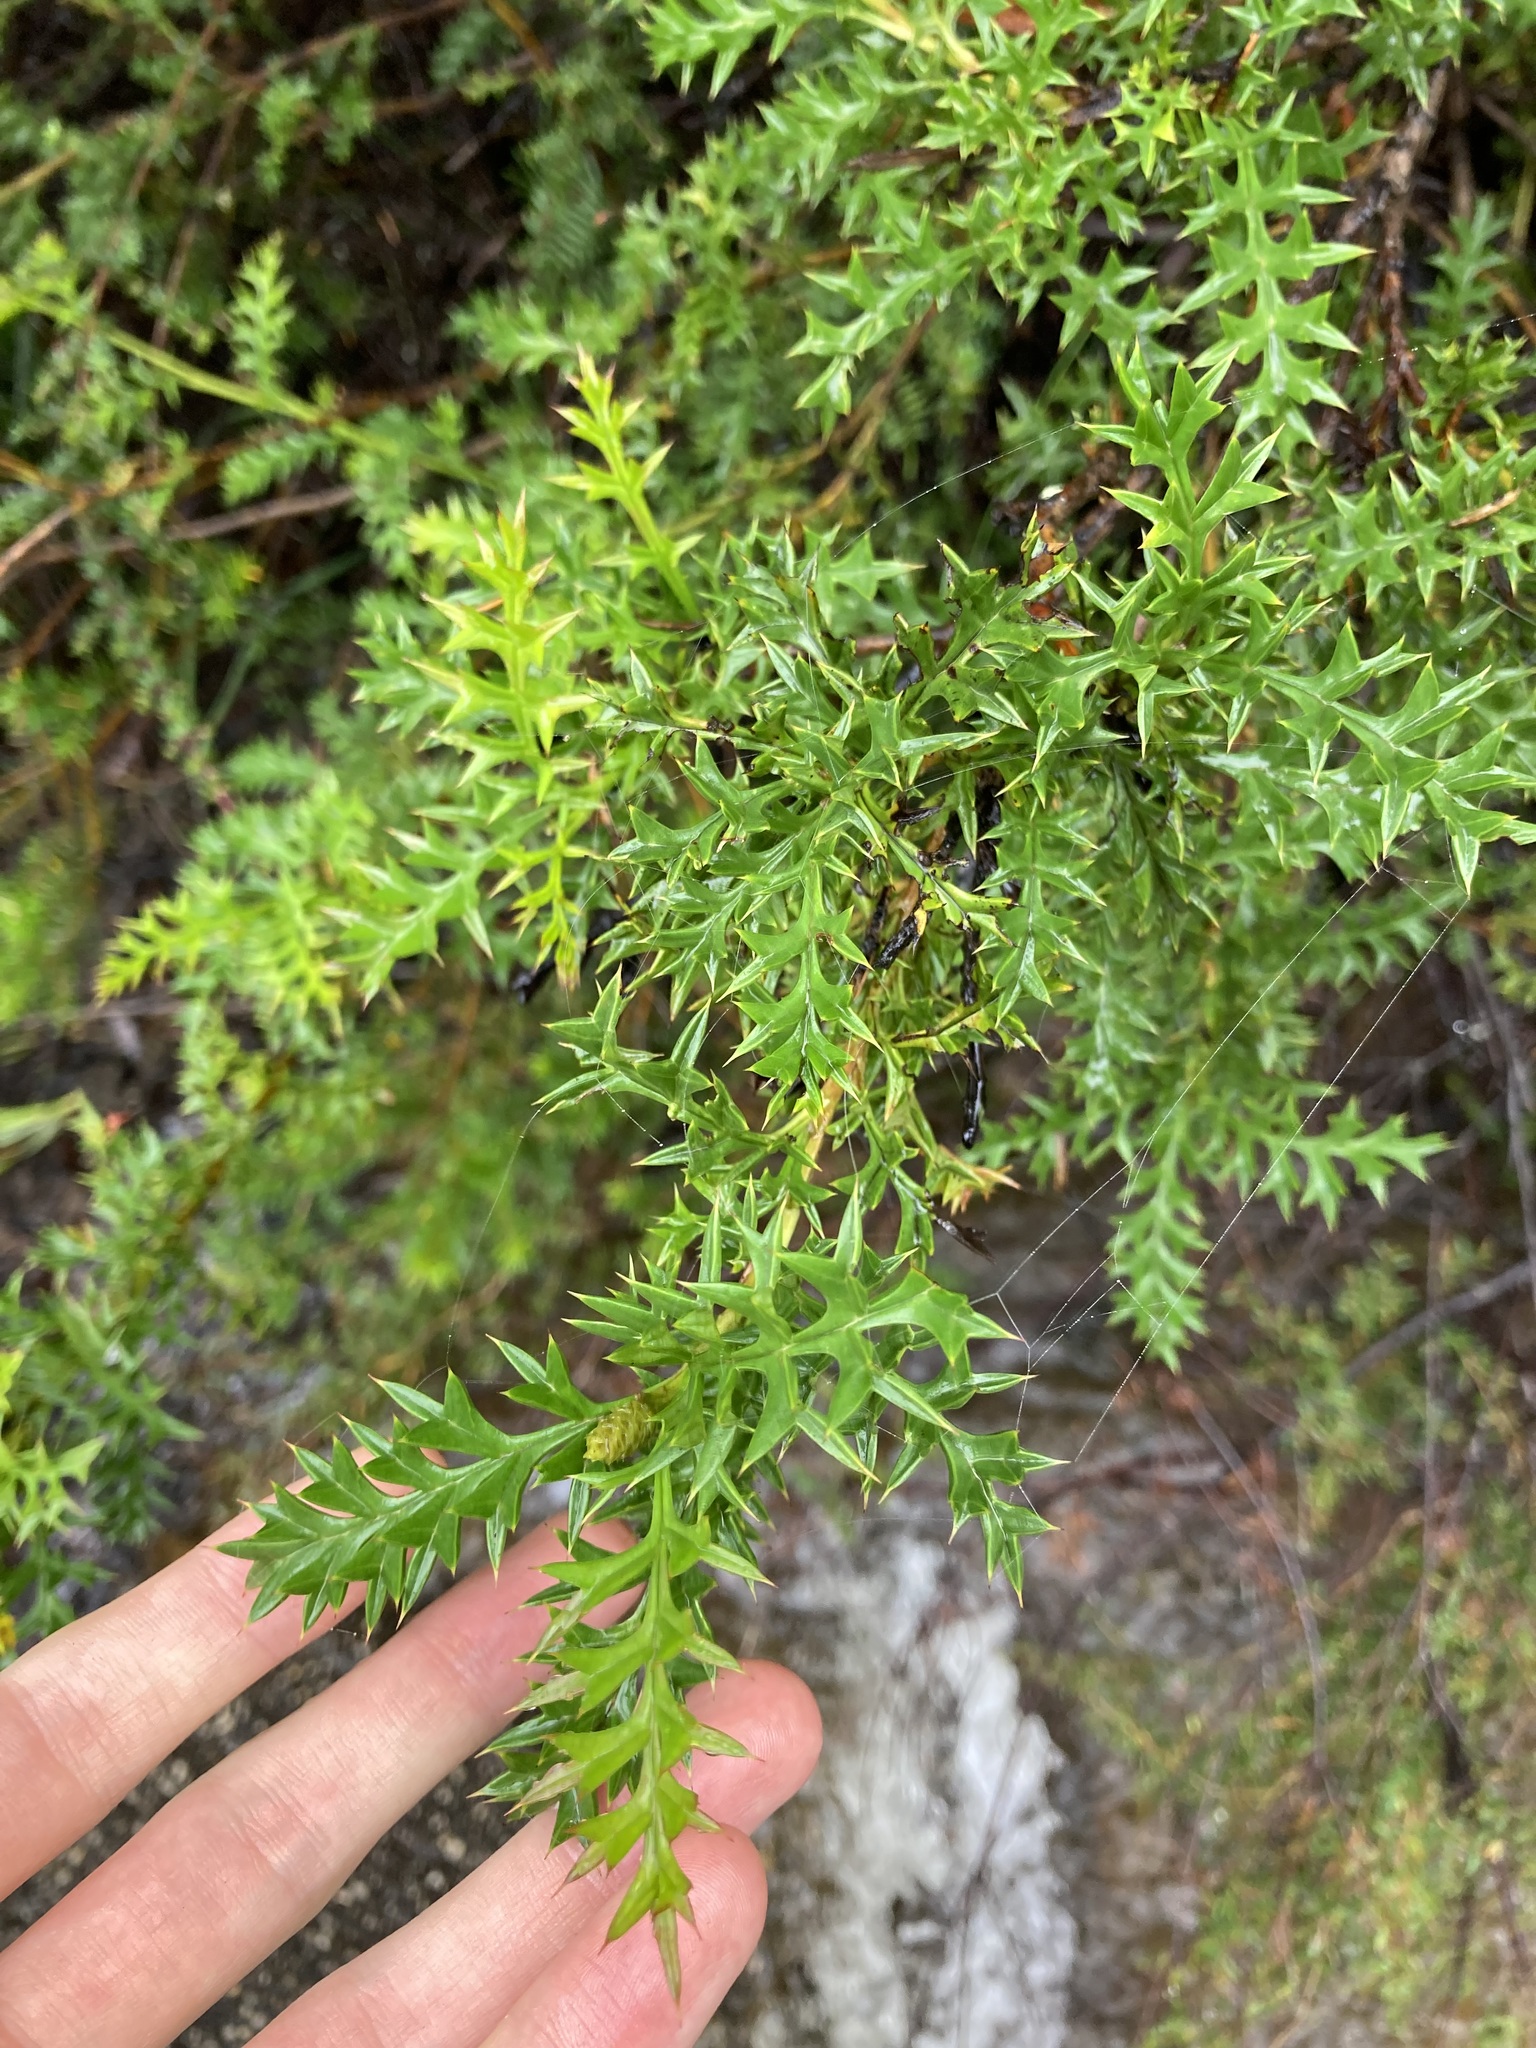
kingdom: Plantae
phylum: Tracheophyta
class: Magnoliopsida
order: Proteales
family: Proteaceae
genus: Grevillea
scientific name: Grevillea acanthifolia
